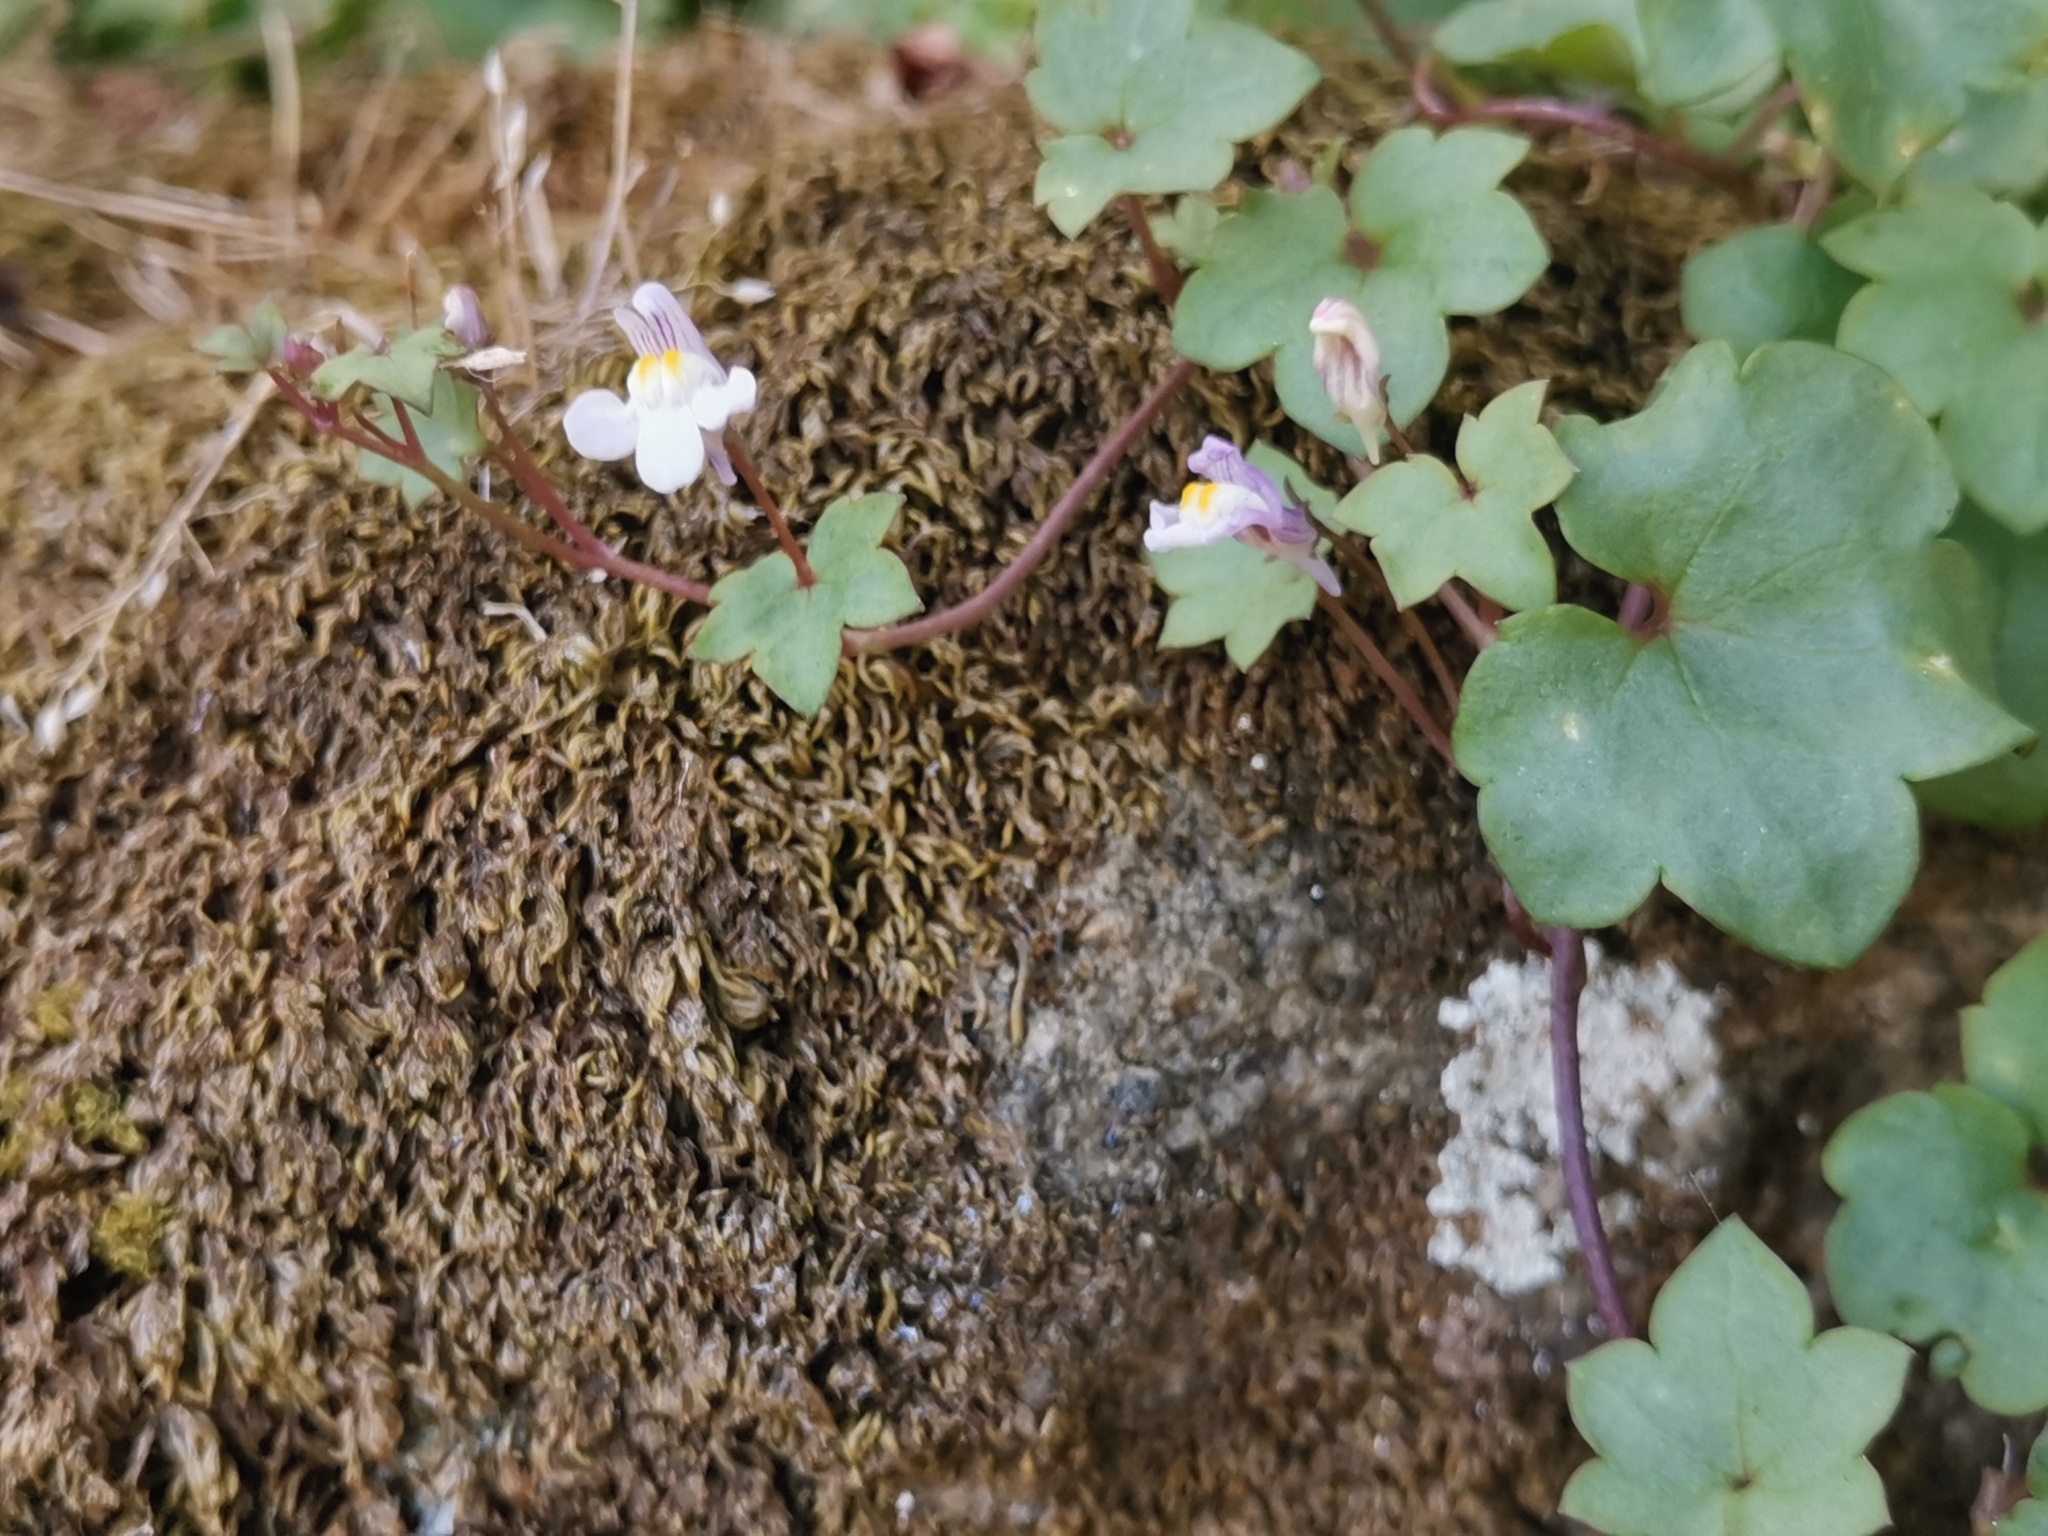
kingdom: Plantae
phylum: Tracheophyta
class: Magnoliopsida
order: Lamiales
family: Plantaginaceae
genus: Cymbalaria
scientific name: Cymbalaria muralis
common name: Ivy-leaved toadflax
